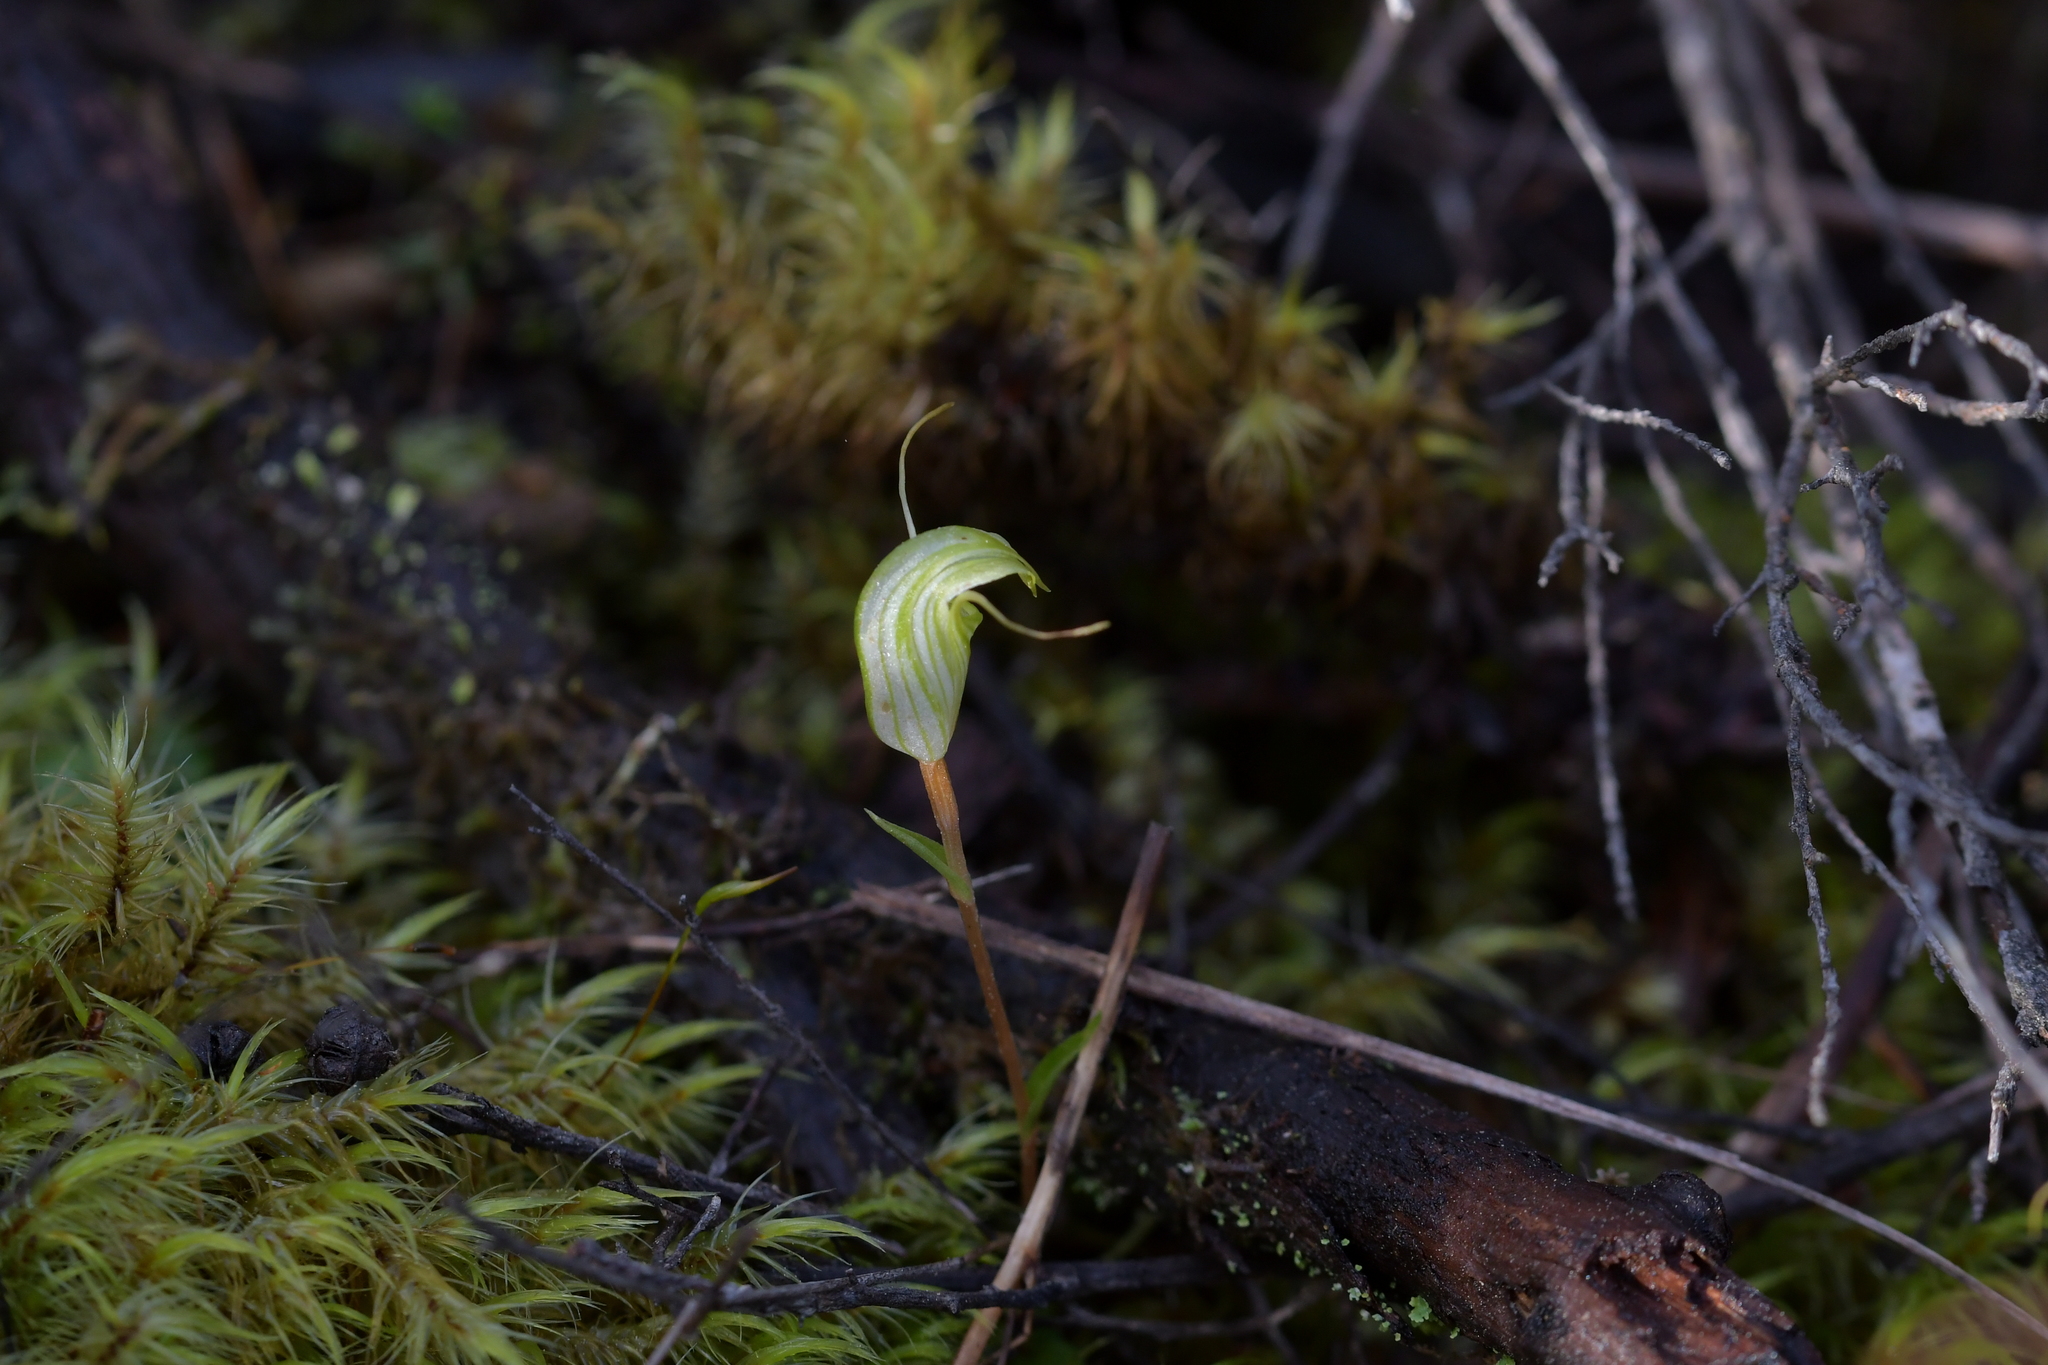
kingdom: Plantae
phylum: Tracheophyta
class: Liliopsida
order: Asparagales
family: Orchidaceae
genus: Pterostylis
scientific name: Pterostylis alobula
